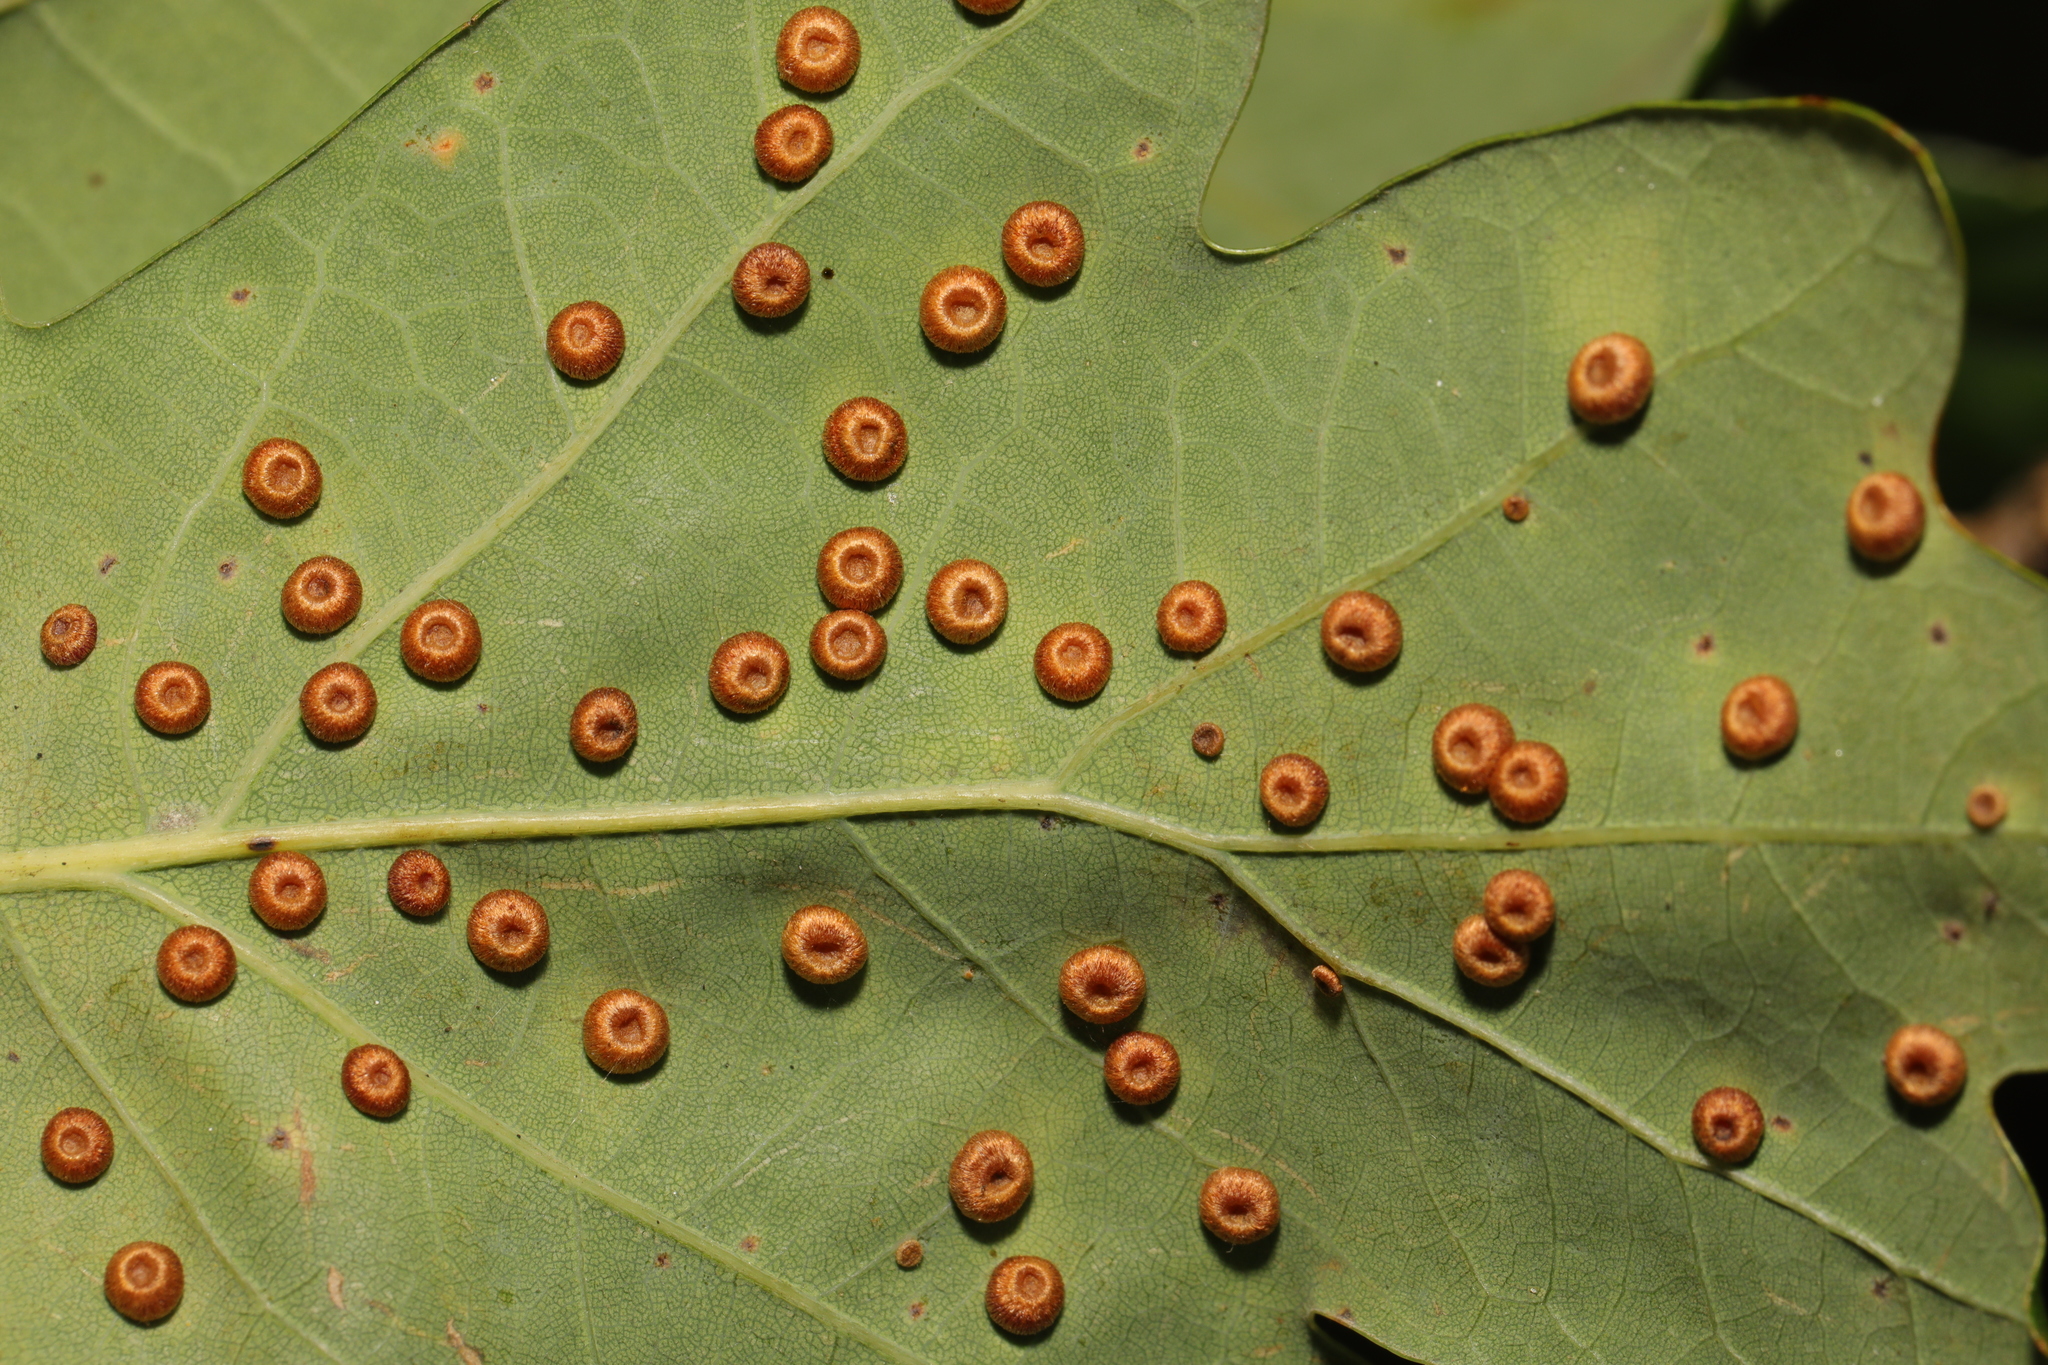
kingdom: Animalia
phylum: Arthropoda
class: Insecta
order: Hymenoptera
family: Cynipidae
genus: Neuroterus
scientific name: Neuroterus numismalis
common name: Silk-button spangle gall
